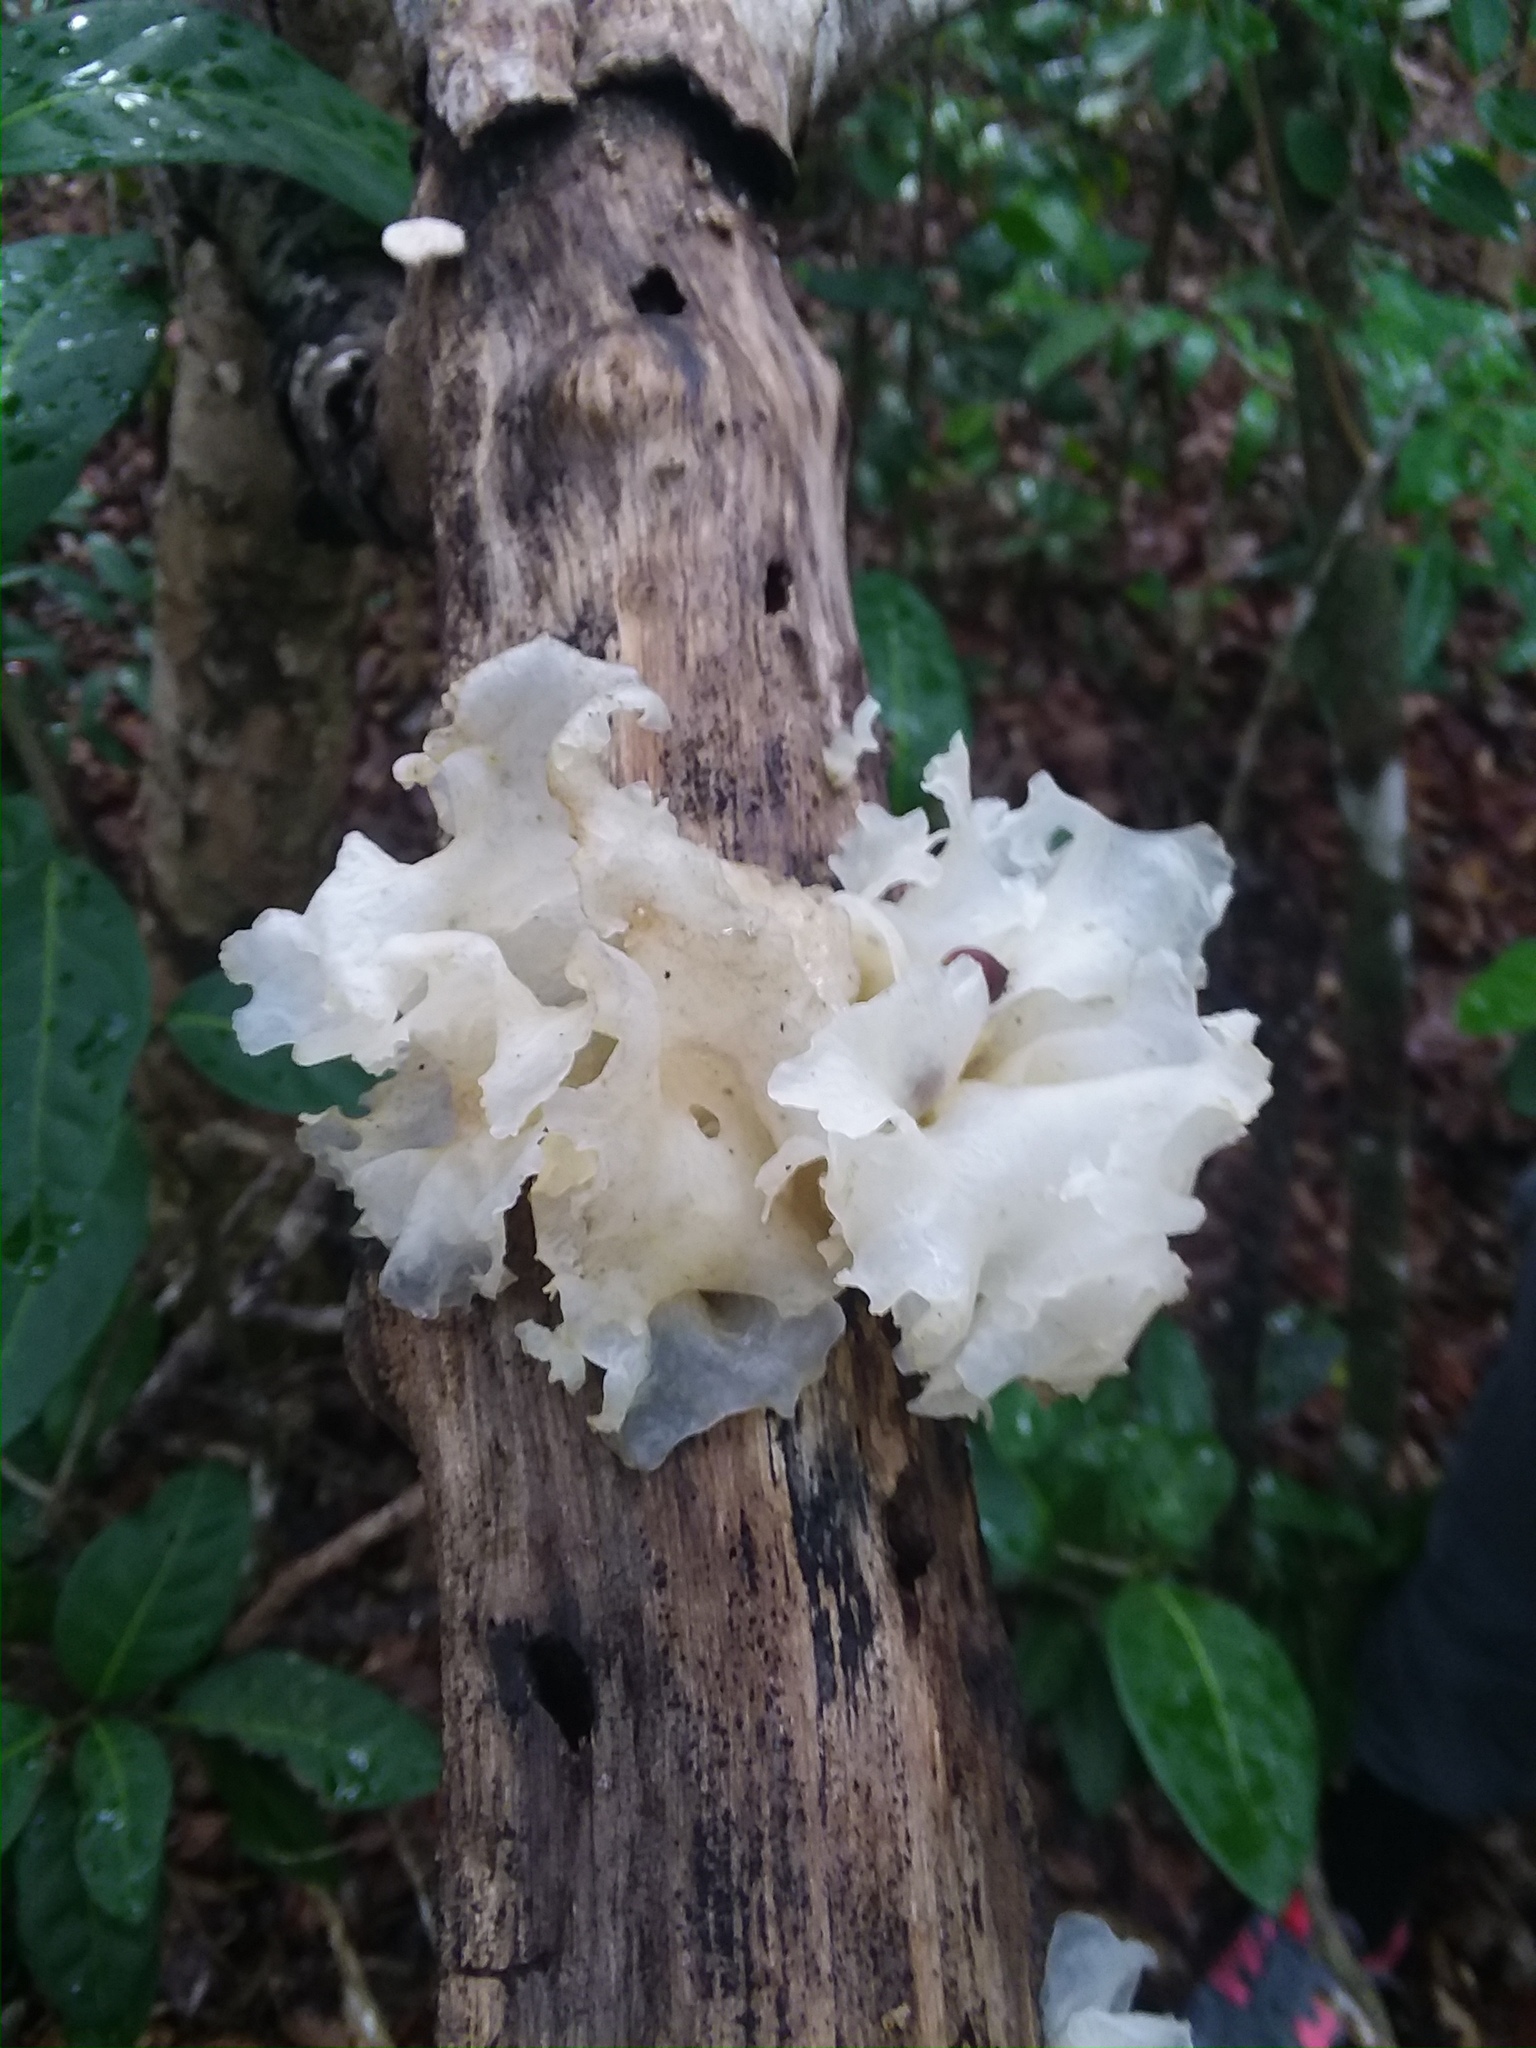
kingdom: Fungi
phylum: Basidiomycota
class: Tremellomycetes
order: Tremellales
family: Tremellaceae
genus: Tremella
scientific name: Tremella fuciformis
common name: Snow fungus
